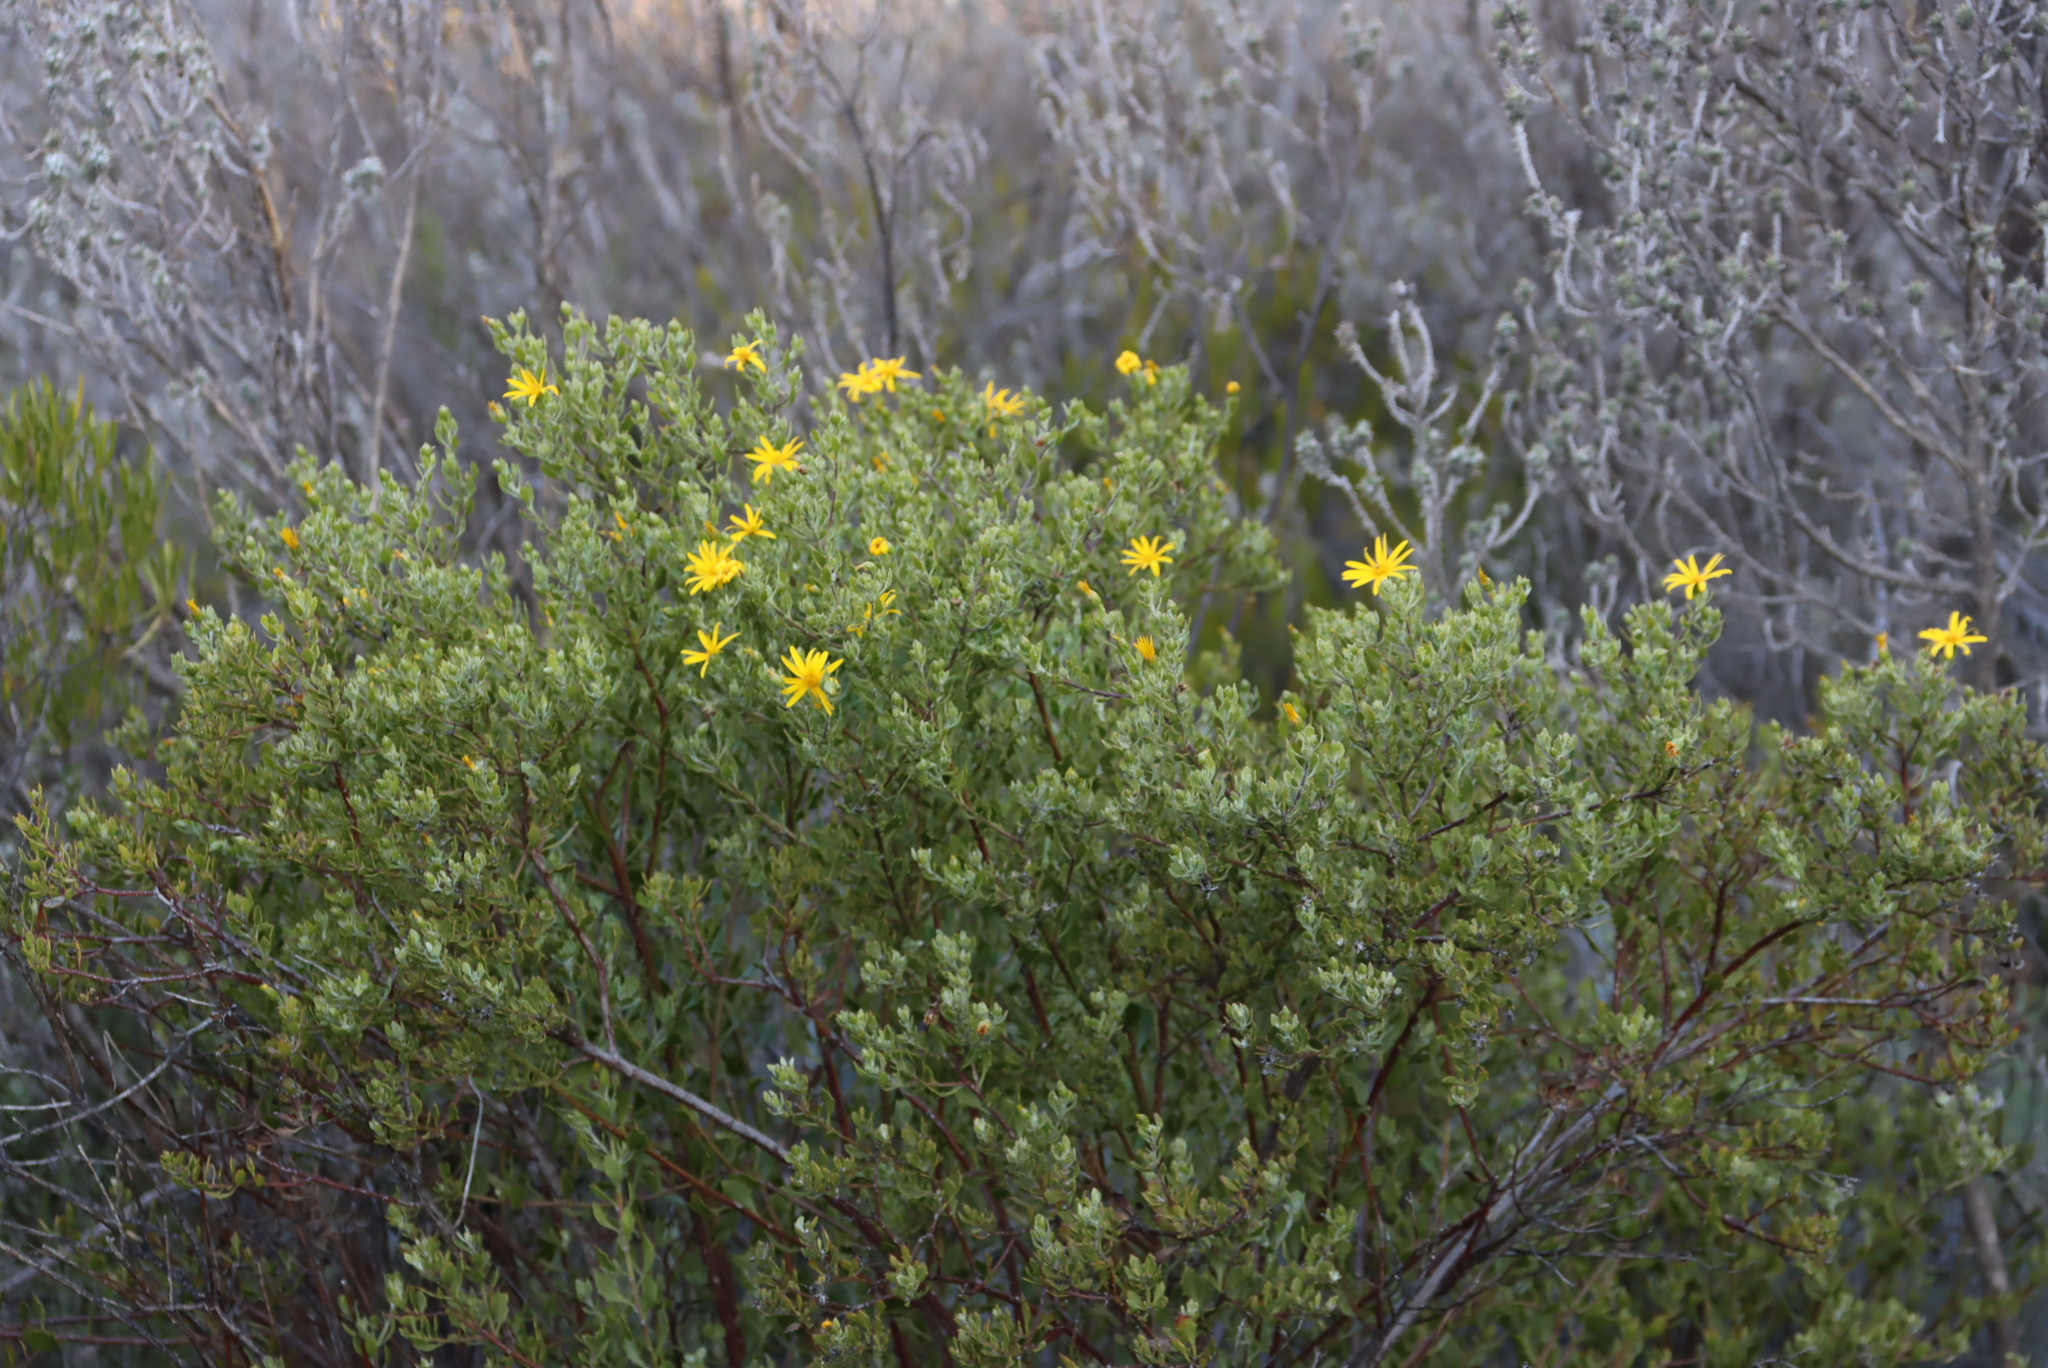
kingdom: Plantae
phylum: Tracheophyta
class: Magnoliopsida
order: Asterales
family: Asteraceae
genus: Osteospermum
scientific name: Osteospermum moniliferum
